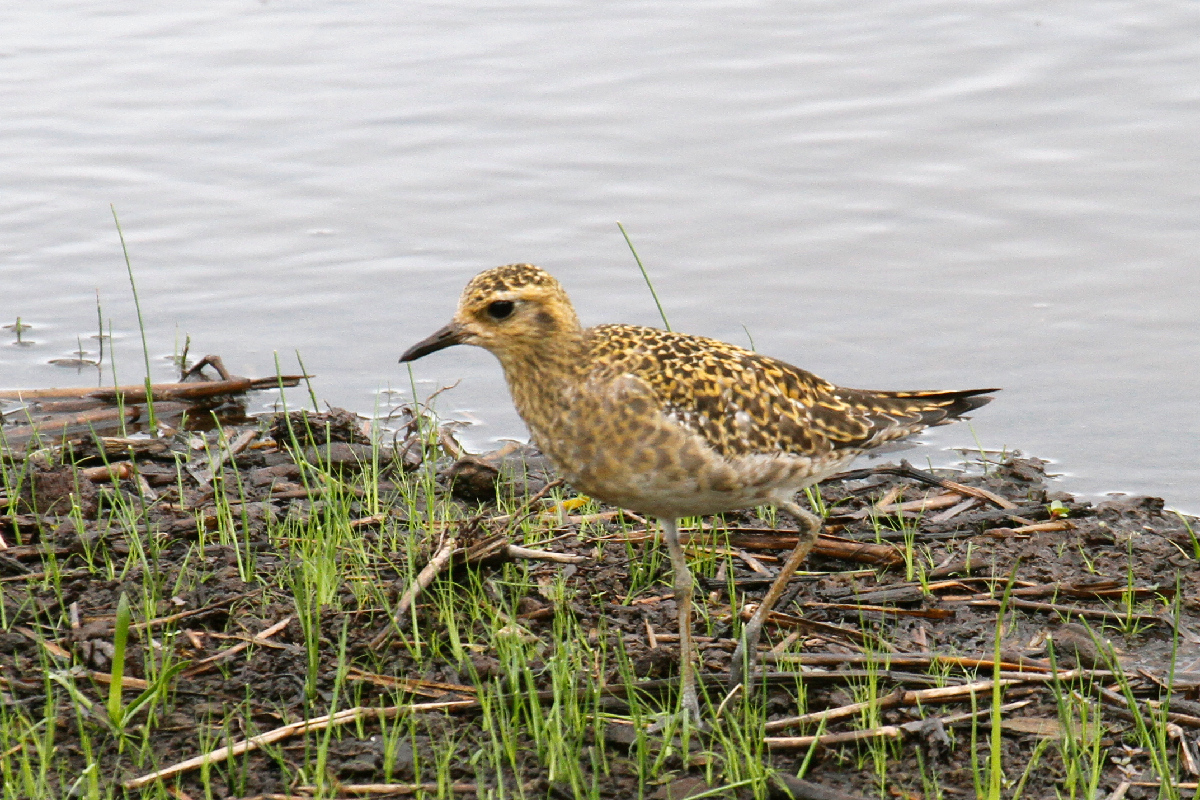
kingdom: Animalia
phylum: Chordata
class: Aves
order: Charadriiformes
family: Charadriidae
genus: Pluvialis
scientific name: Pluvialis fulva
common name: Pacific golden plover
